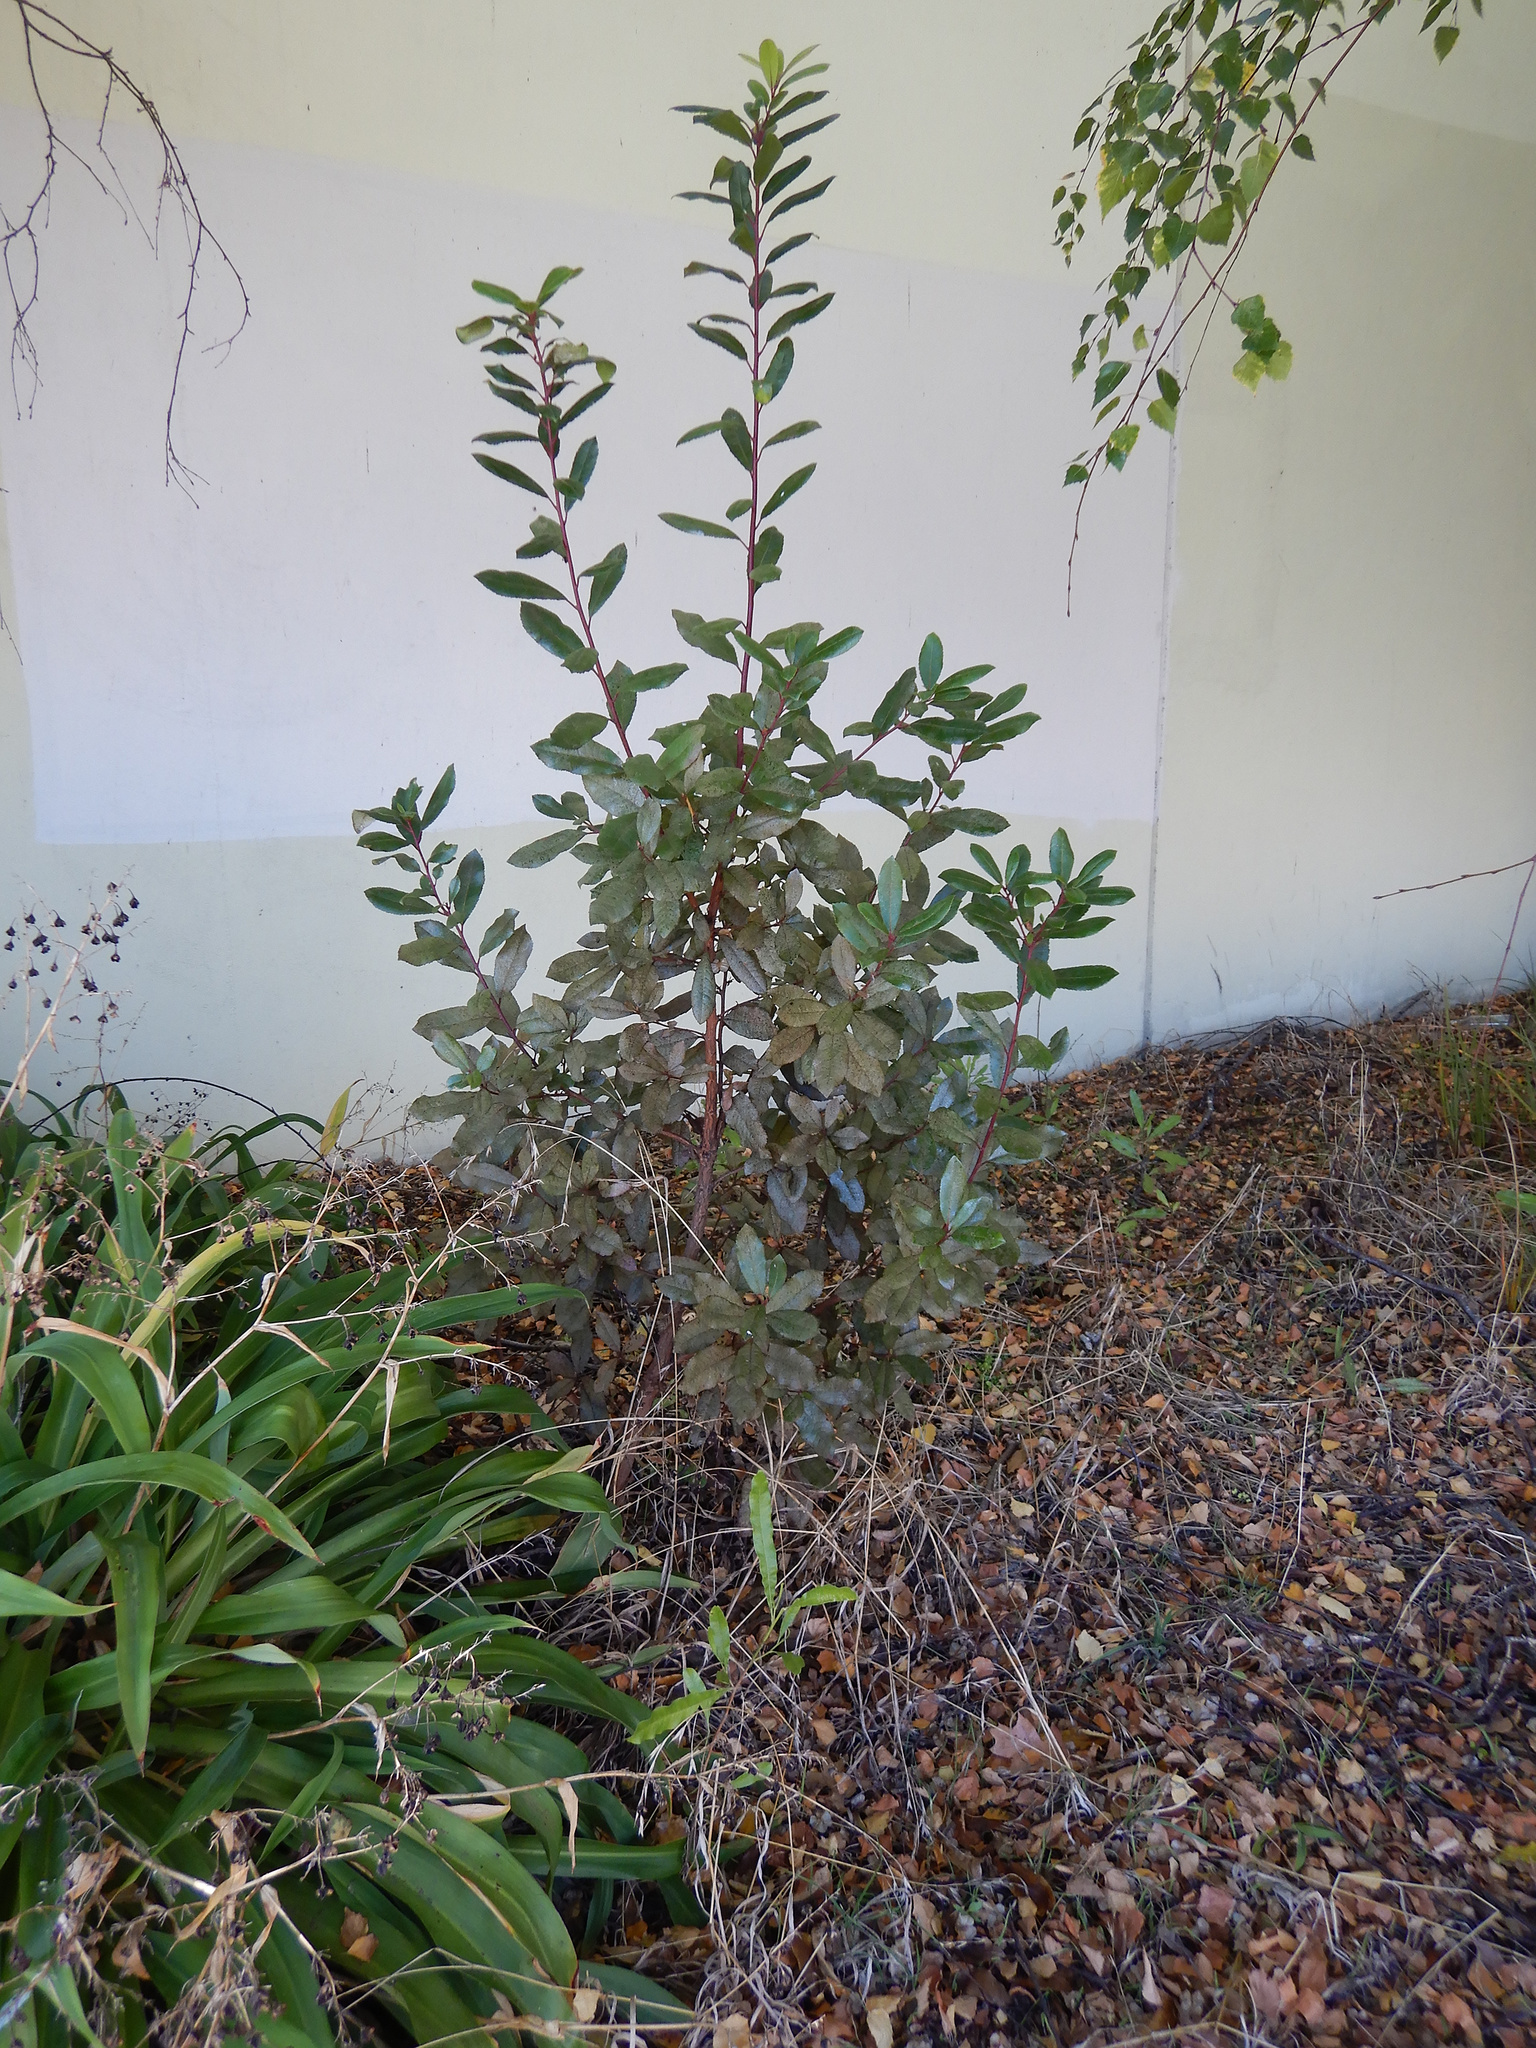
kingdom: Plantae
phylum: Tracheophyta
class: Magnoliopsida
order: Ericales
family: Ericaceae
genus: Arbutus
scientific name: Arbutus unedo
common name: Strawberry-tree
